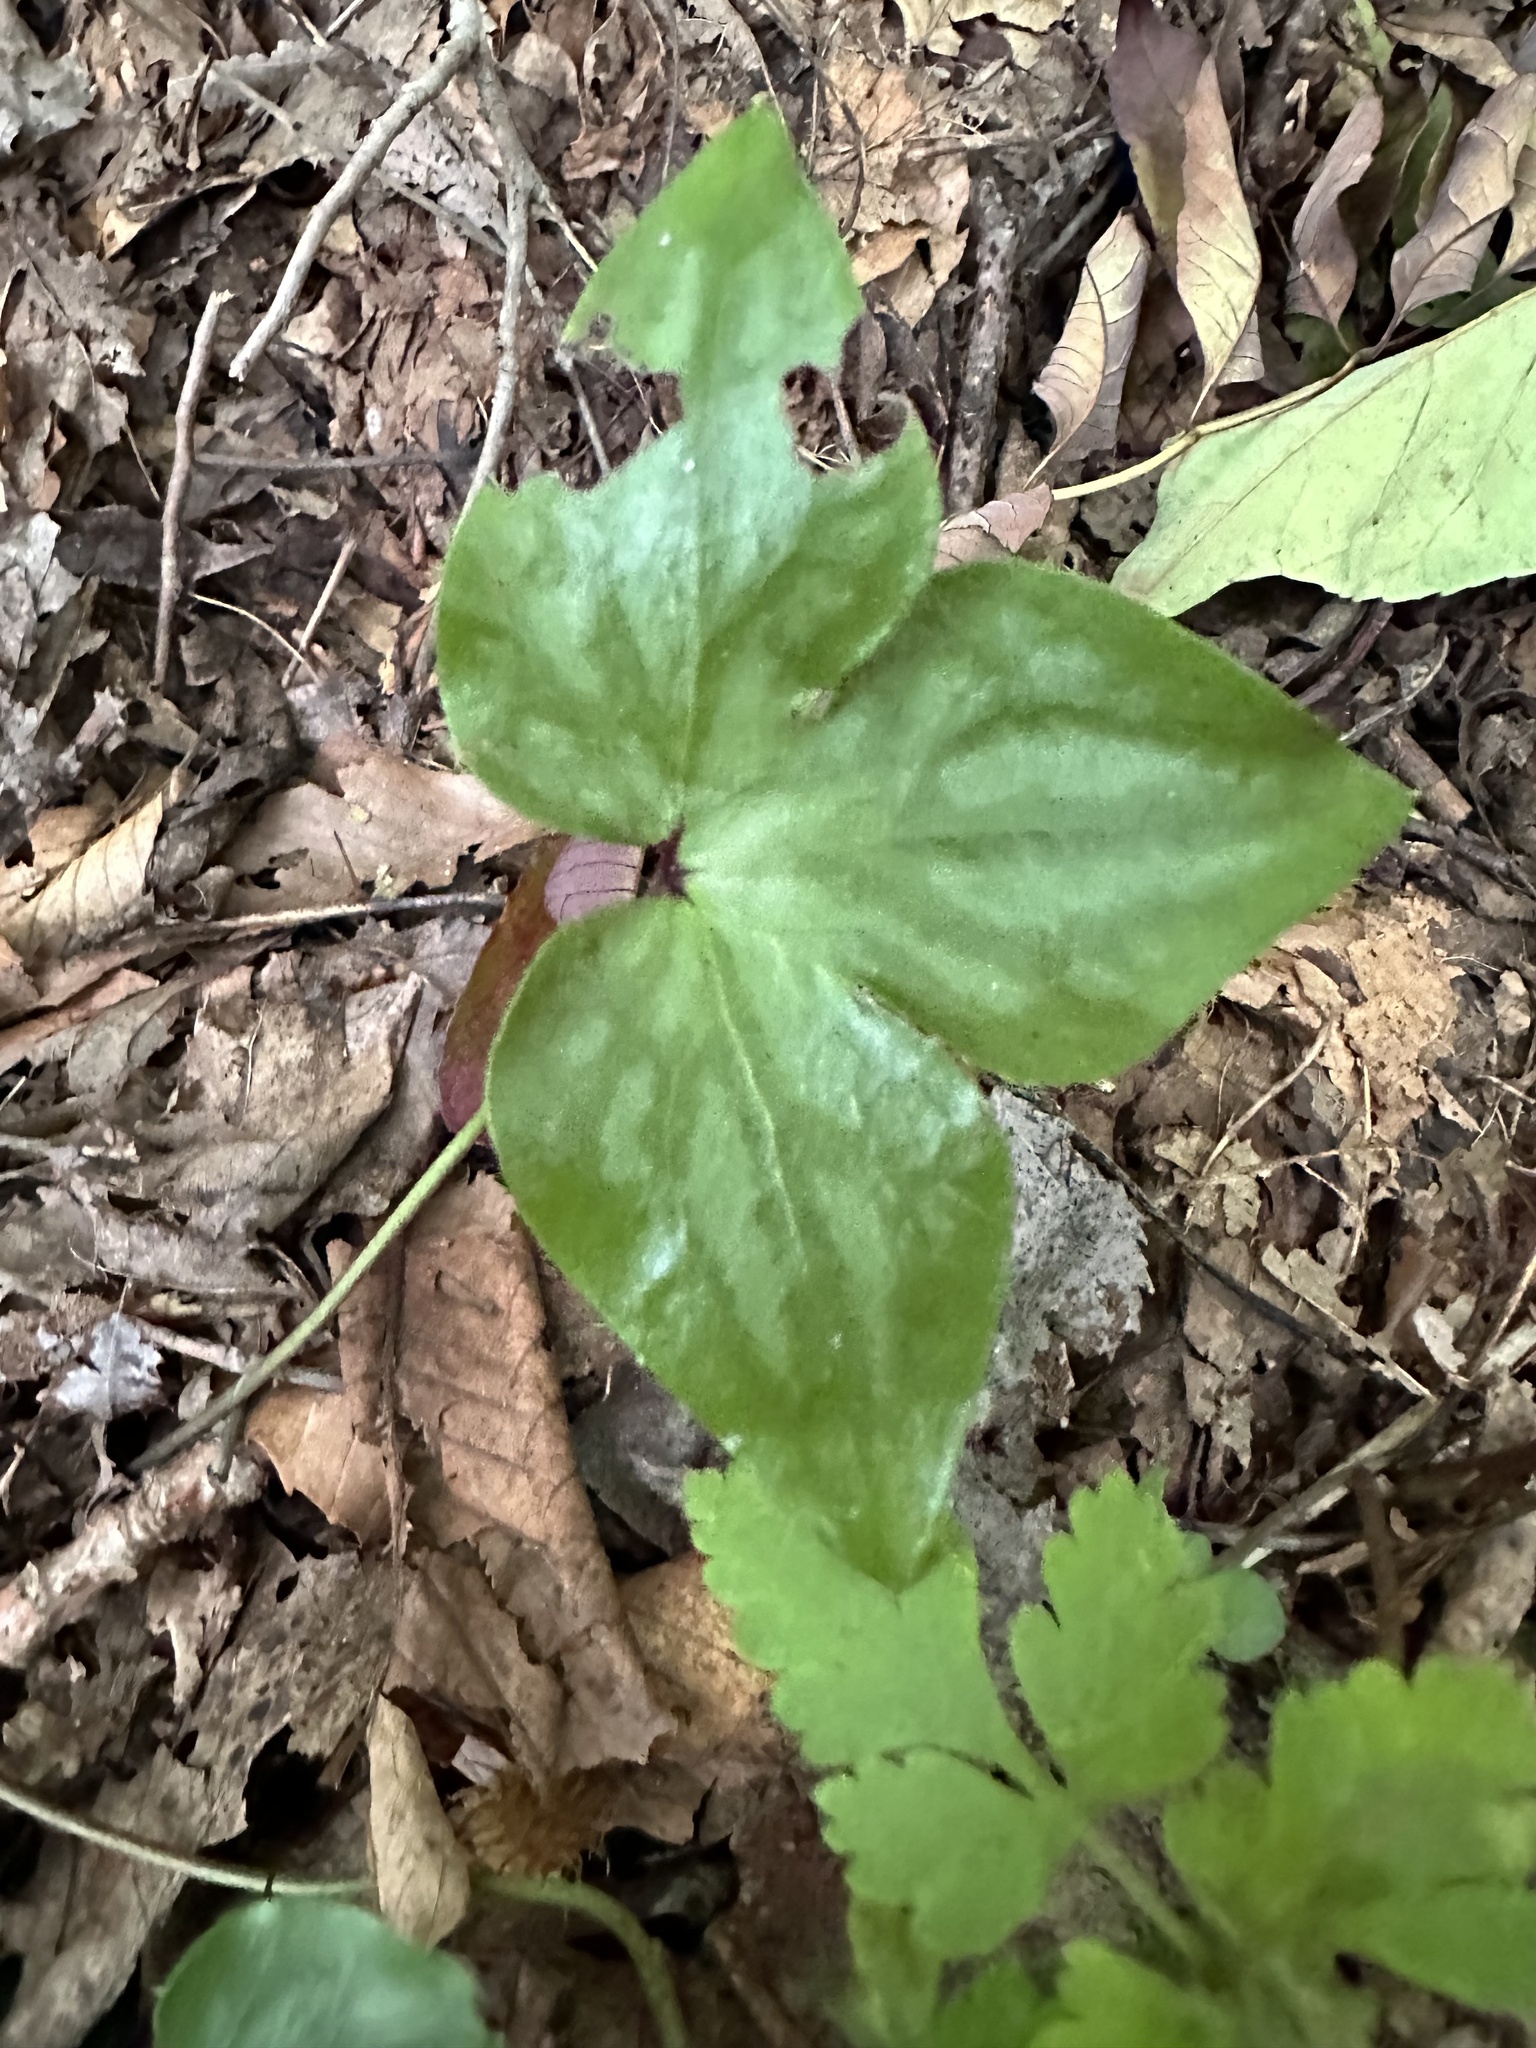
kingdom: Plantae
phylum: Tracheophyta
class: Magnoliopsida
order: Ranunculales
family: Ranunculaceae
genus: Hepatica
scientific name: Hepatica acutiloba
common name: Sharp-lobed hepatica
